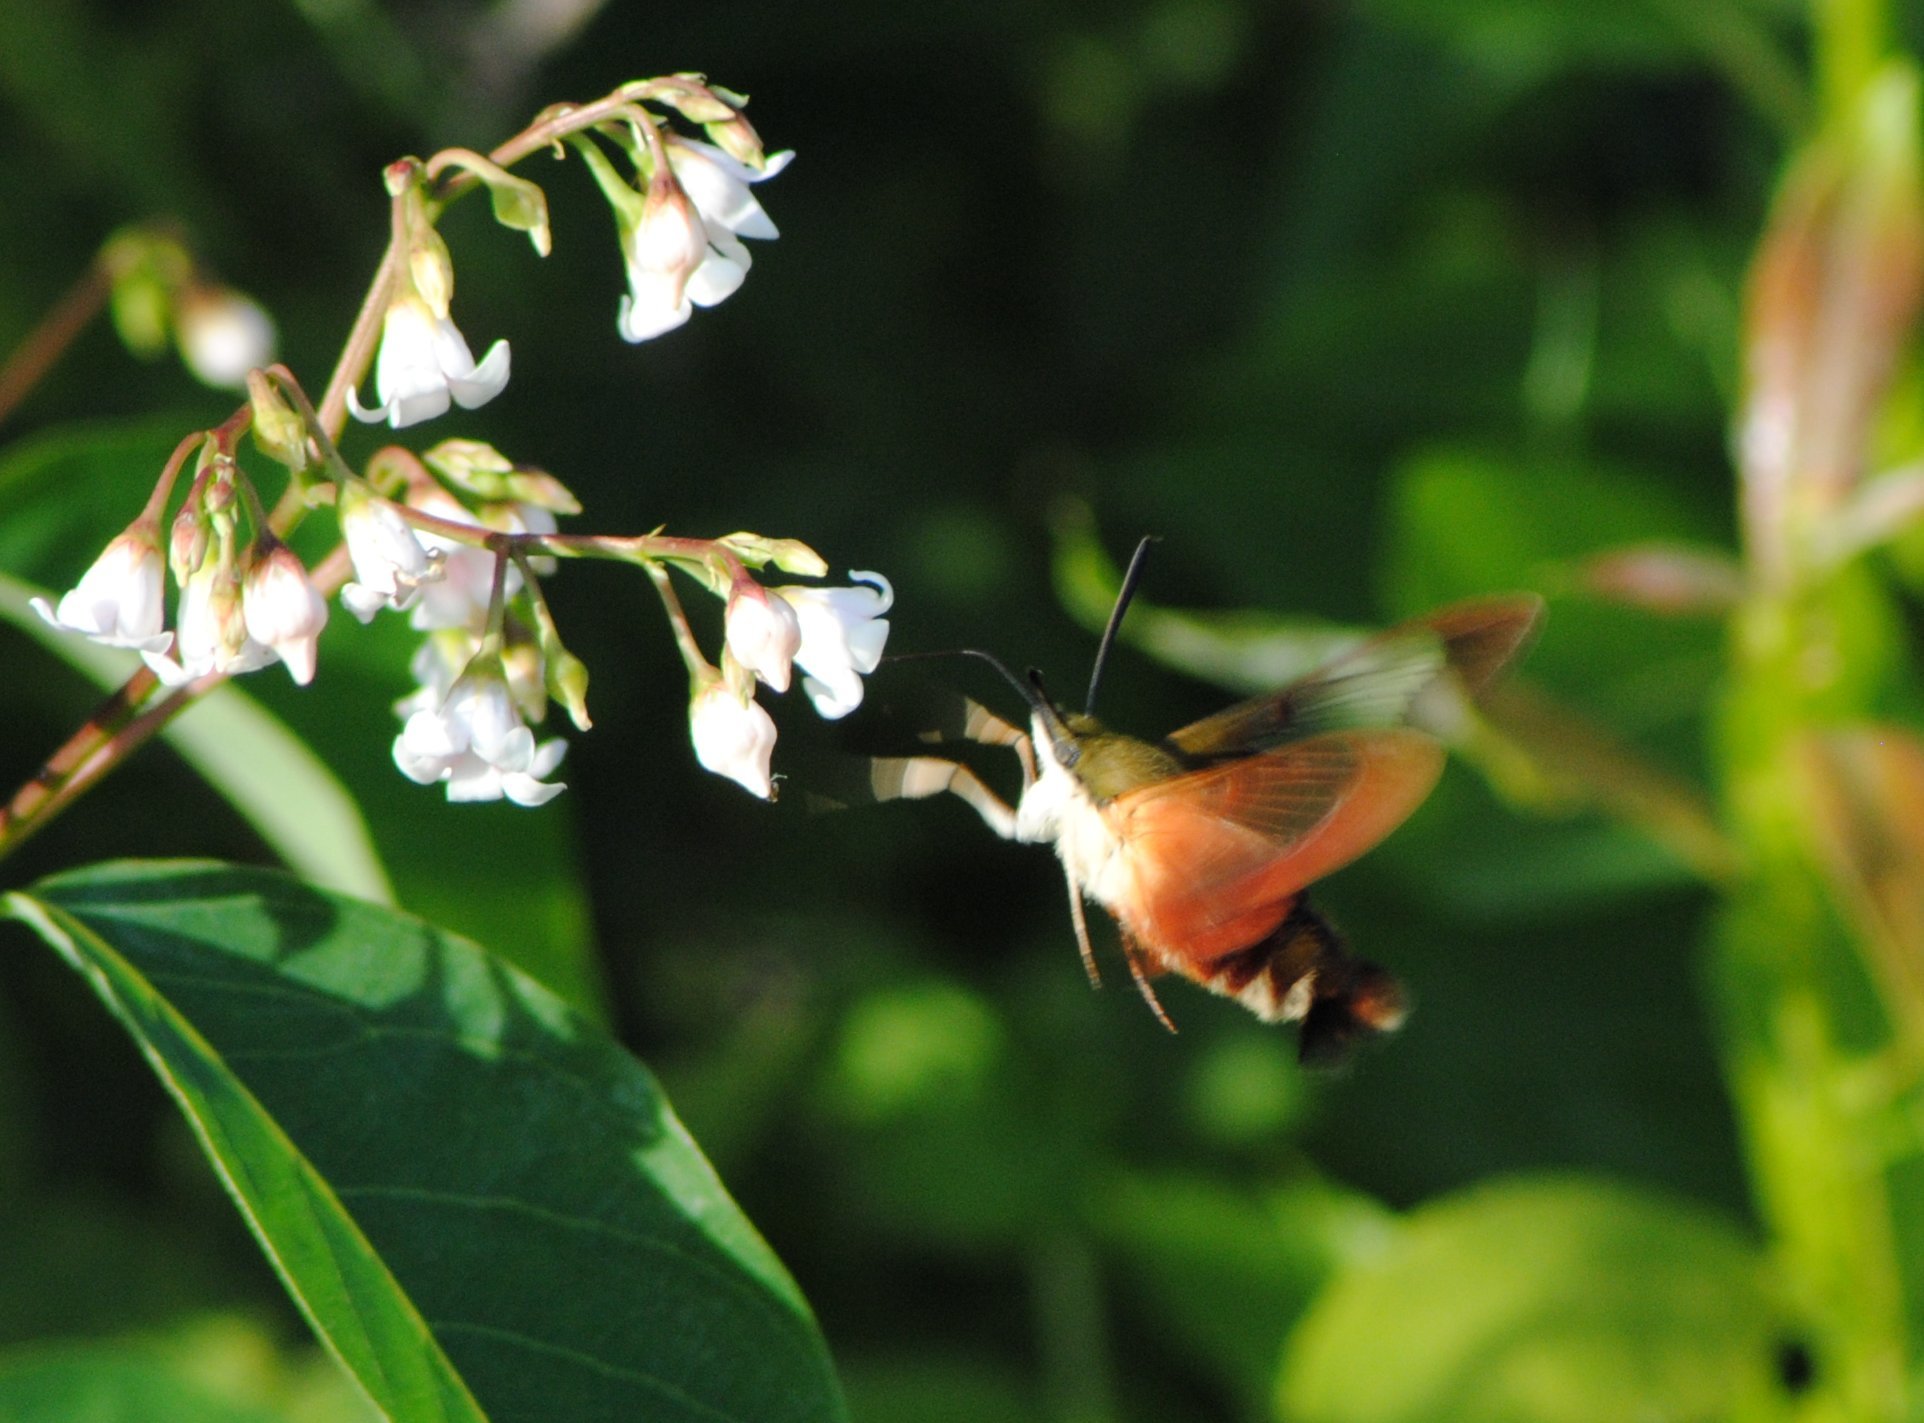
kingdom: Animalia
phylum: Arthropoda
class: Insecta
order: Lepidoptera
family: Sphingidae
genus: Hemaris
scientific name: Hemaris thysbe
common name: Common clear-wing
